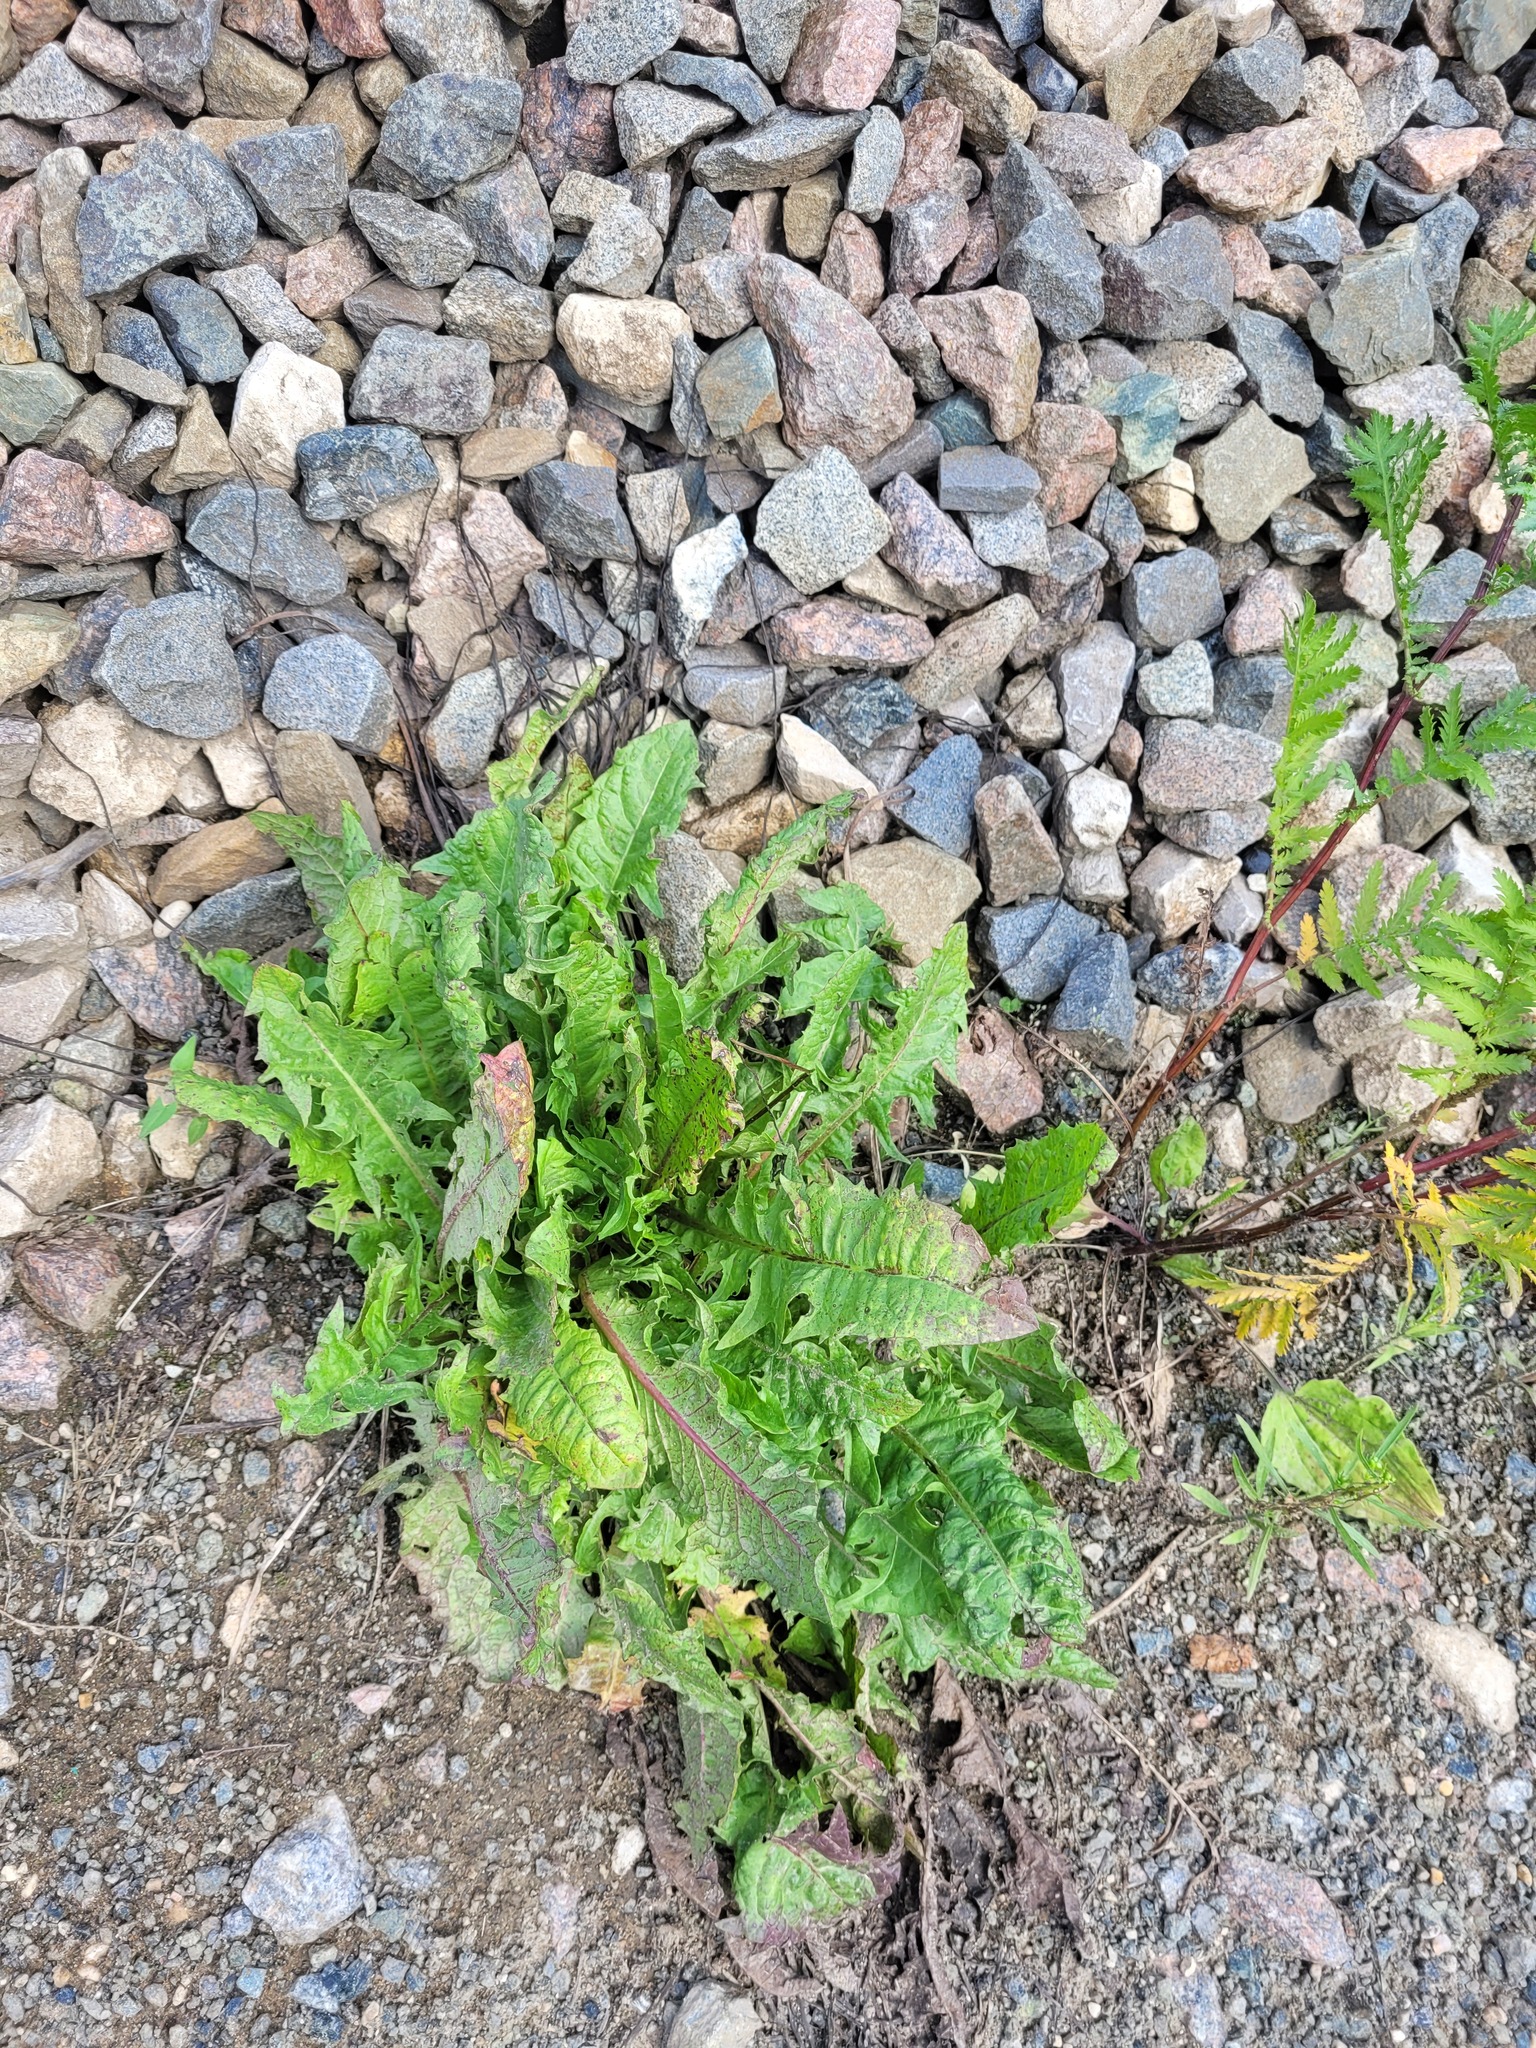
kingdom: Plantae
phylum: Tracheophyta
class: Magnoliopsida
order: Asterales
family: Asteraceae
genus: Taraxacum
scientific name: Taraxacum officinale
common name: Common dandelion
